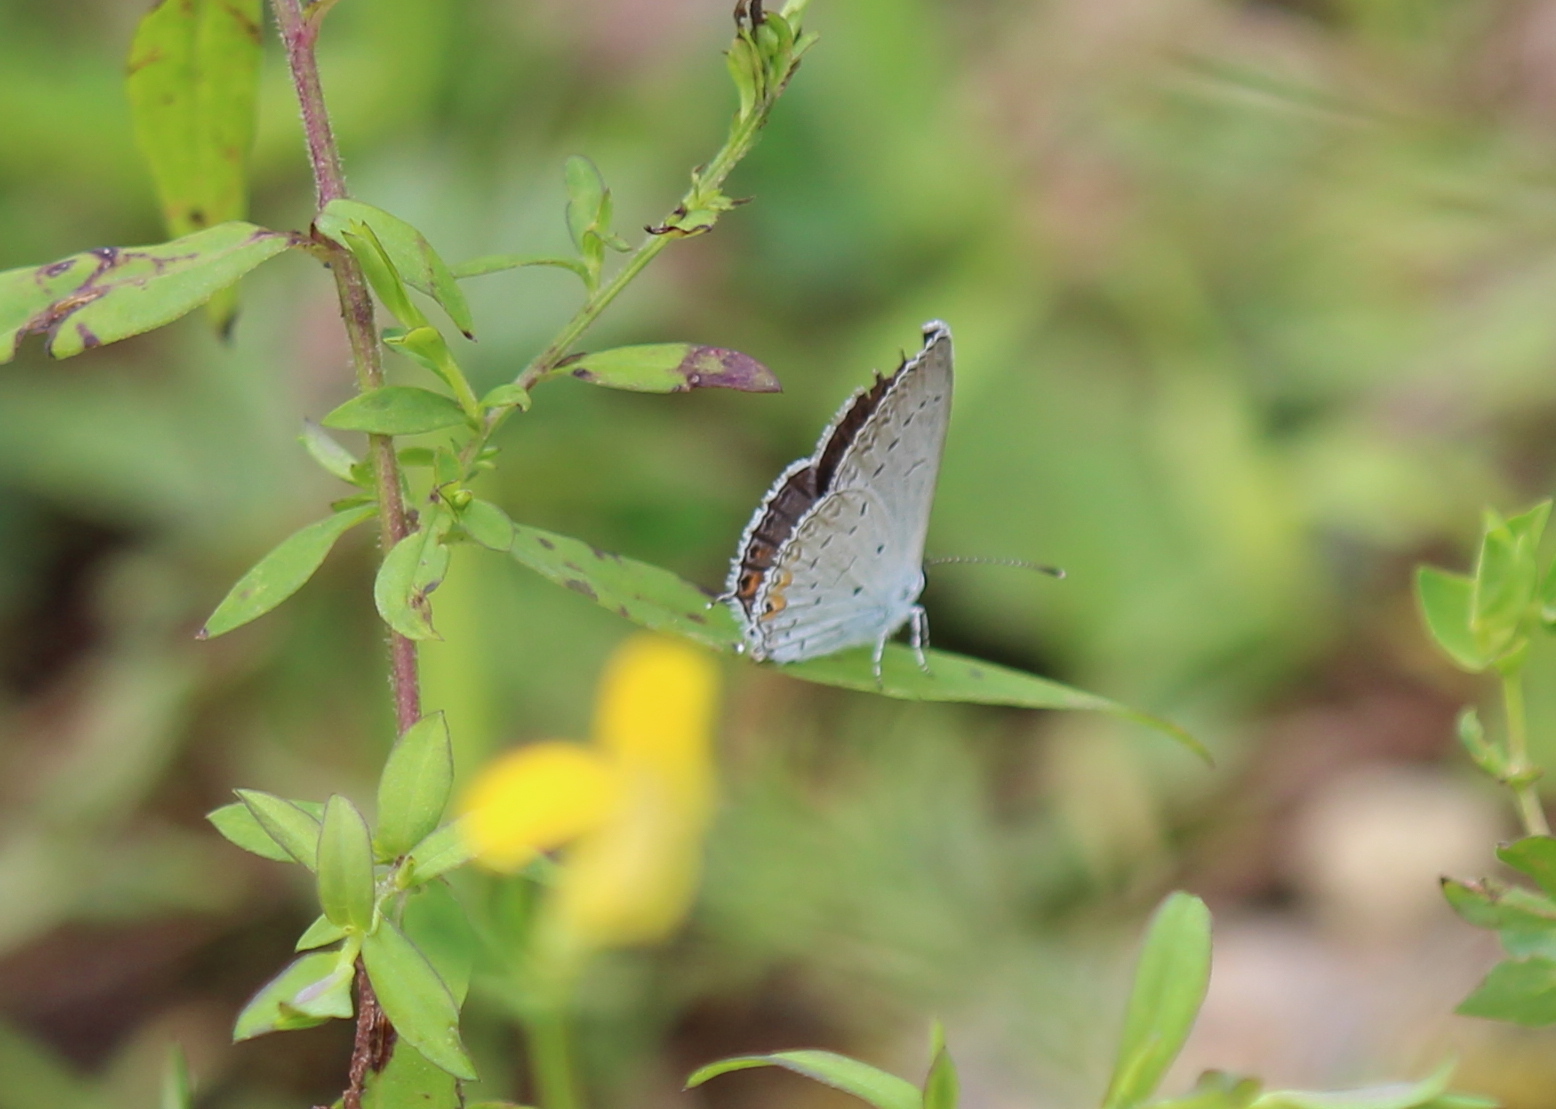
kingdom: Animalia
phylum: Arthropoda
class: Insecta
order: Lepidoptera
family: Lycaenidae
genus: Elkalyce
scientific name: Elkalyce comyntas
